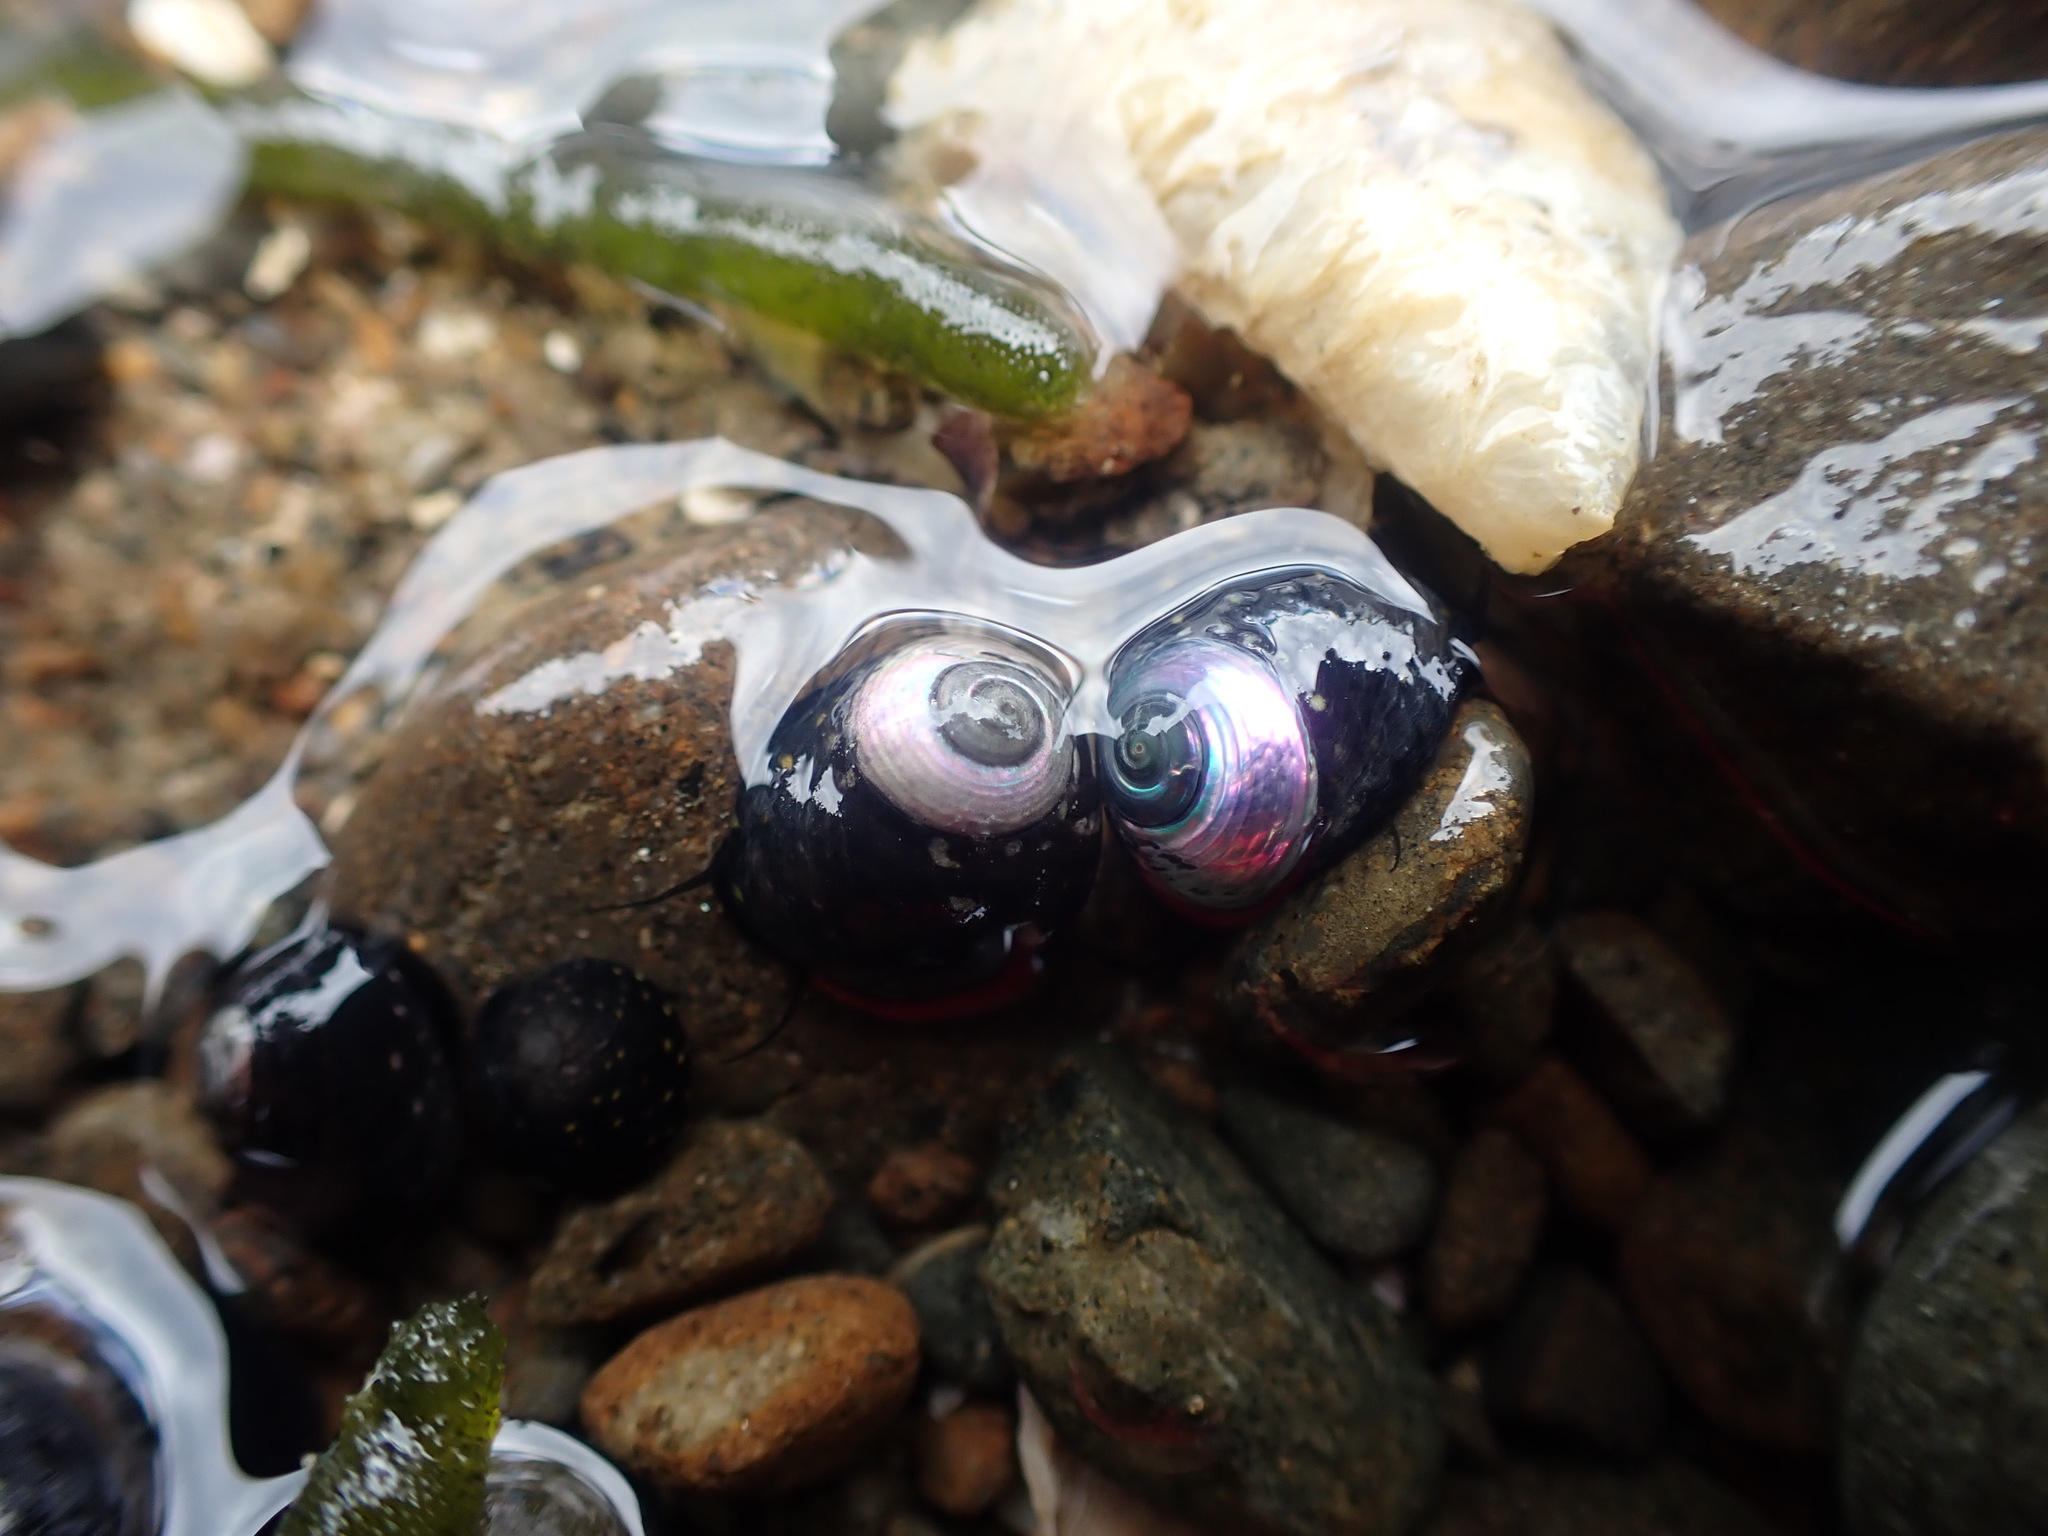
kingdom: Animalia
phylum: Mollusca
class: Gastropoda
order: Trochida
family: Trochidae
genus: Diloma
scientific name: Diloma aridum
